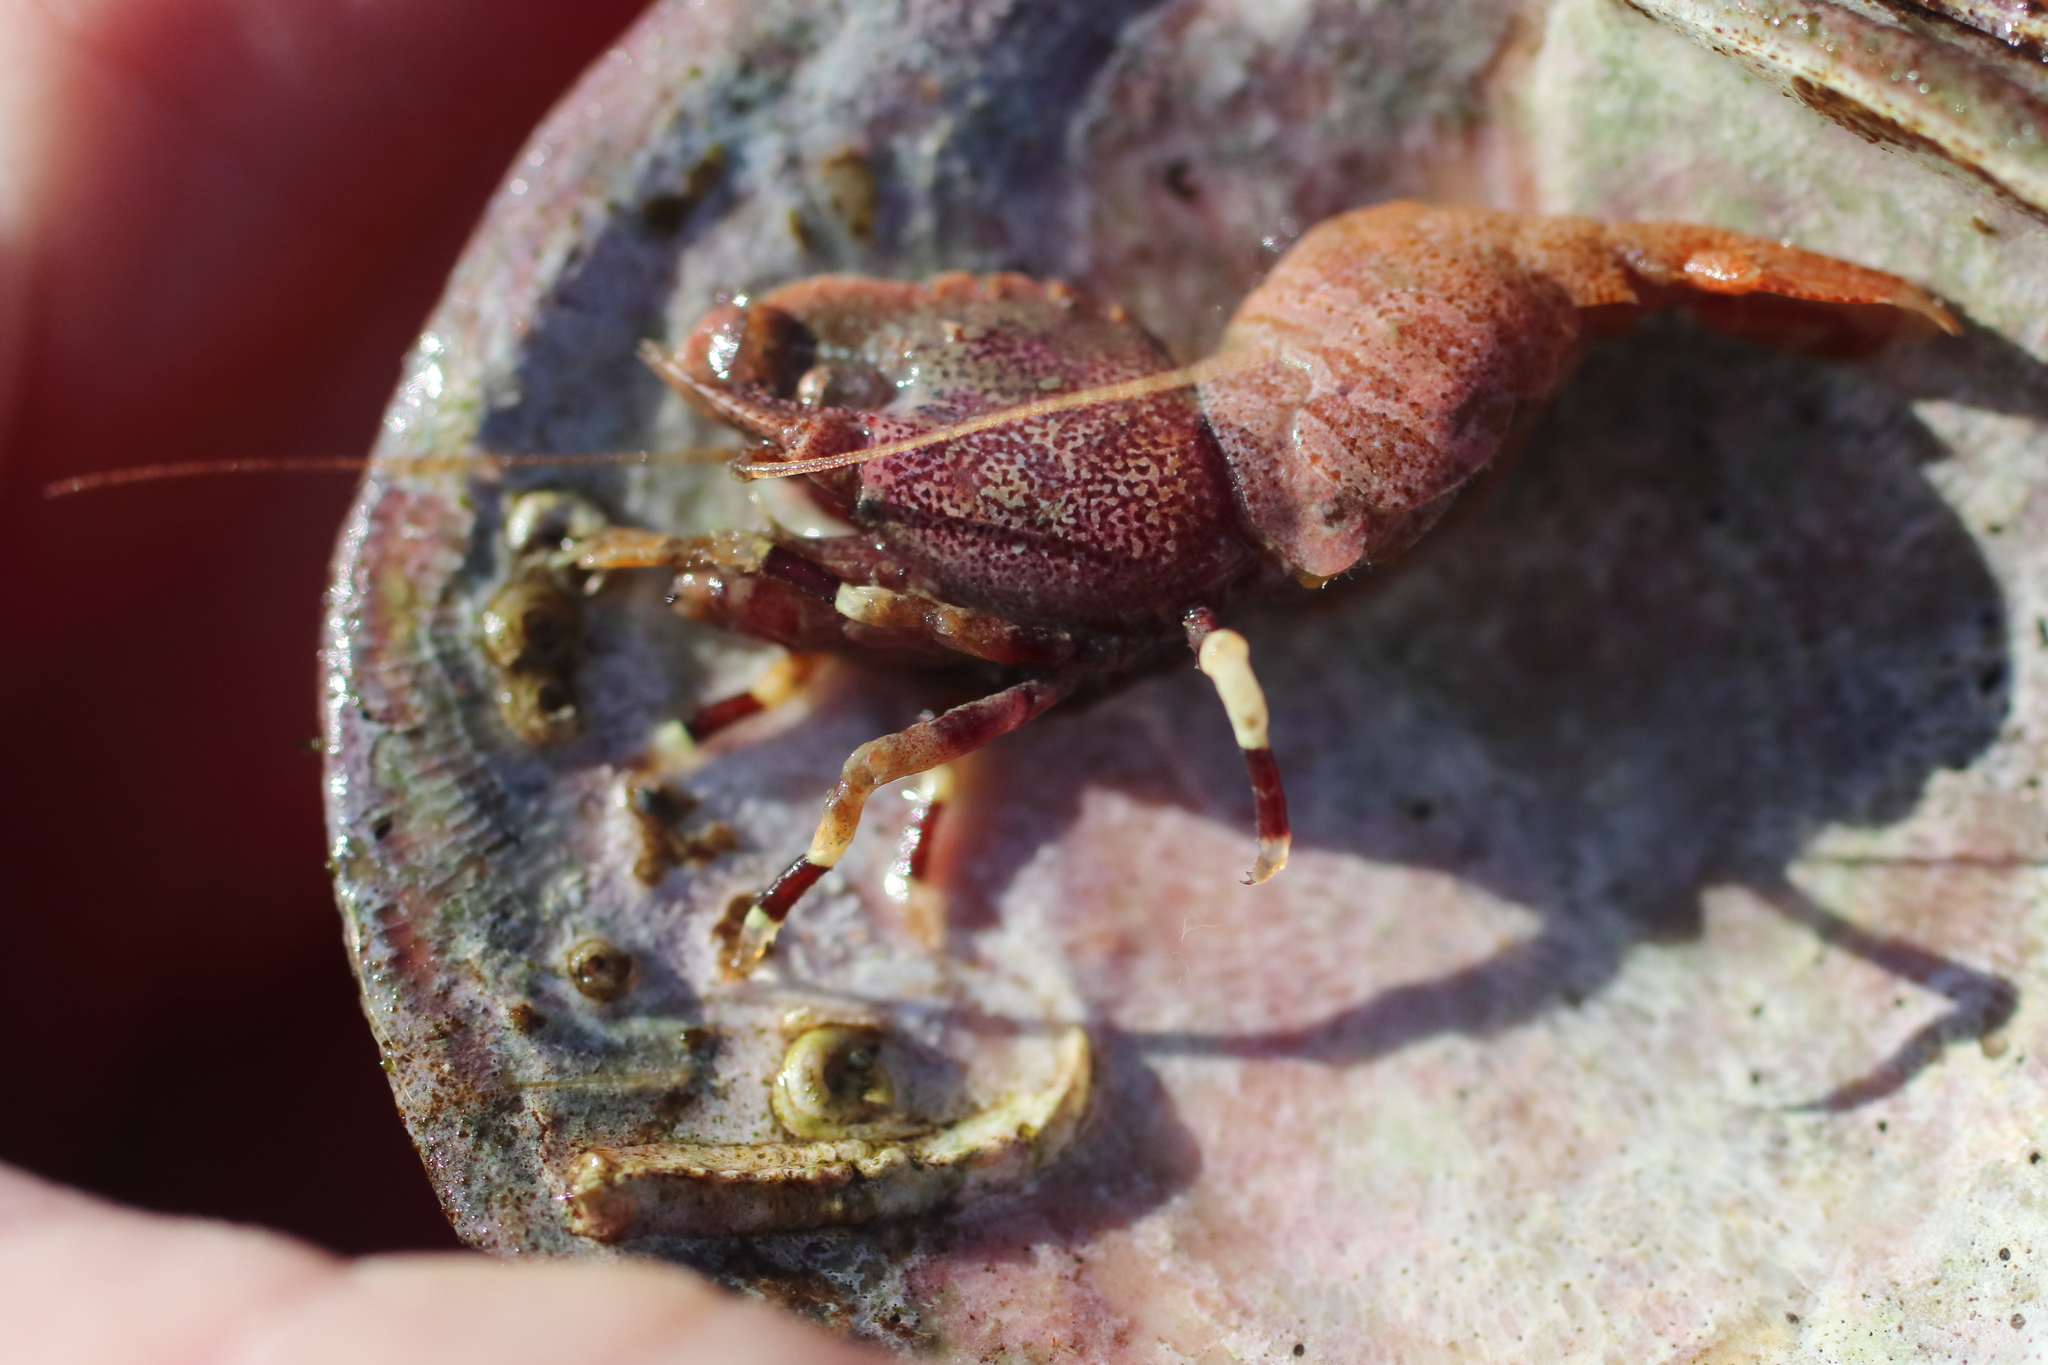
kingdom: Animalia
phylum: Arthropoda
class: Malacostraca
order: Decapoda
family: Thoridae
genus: Spirontocaris
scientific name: Spirontocaris prionota
